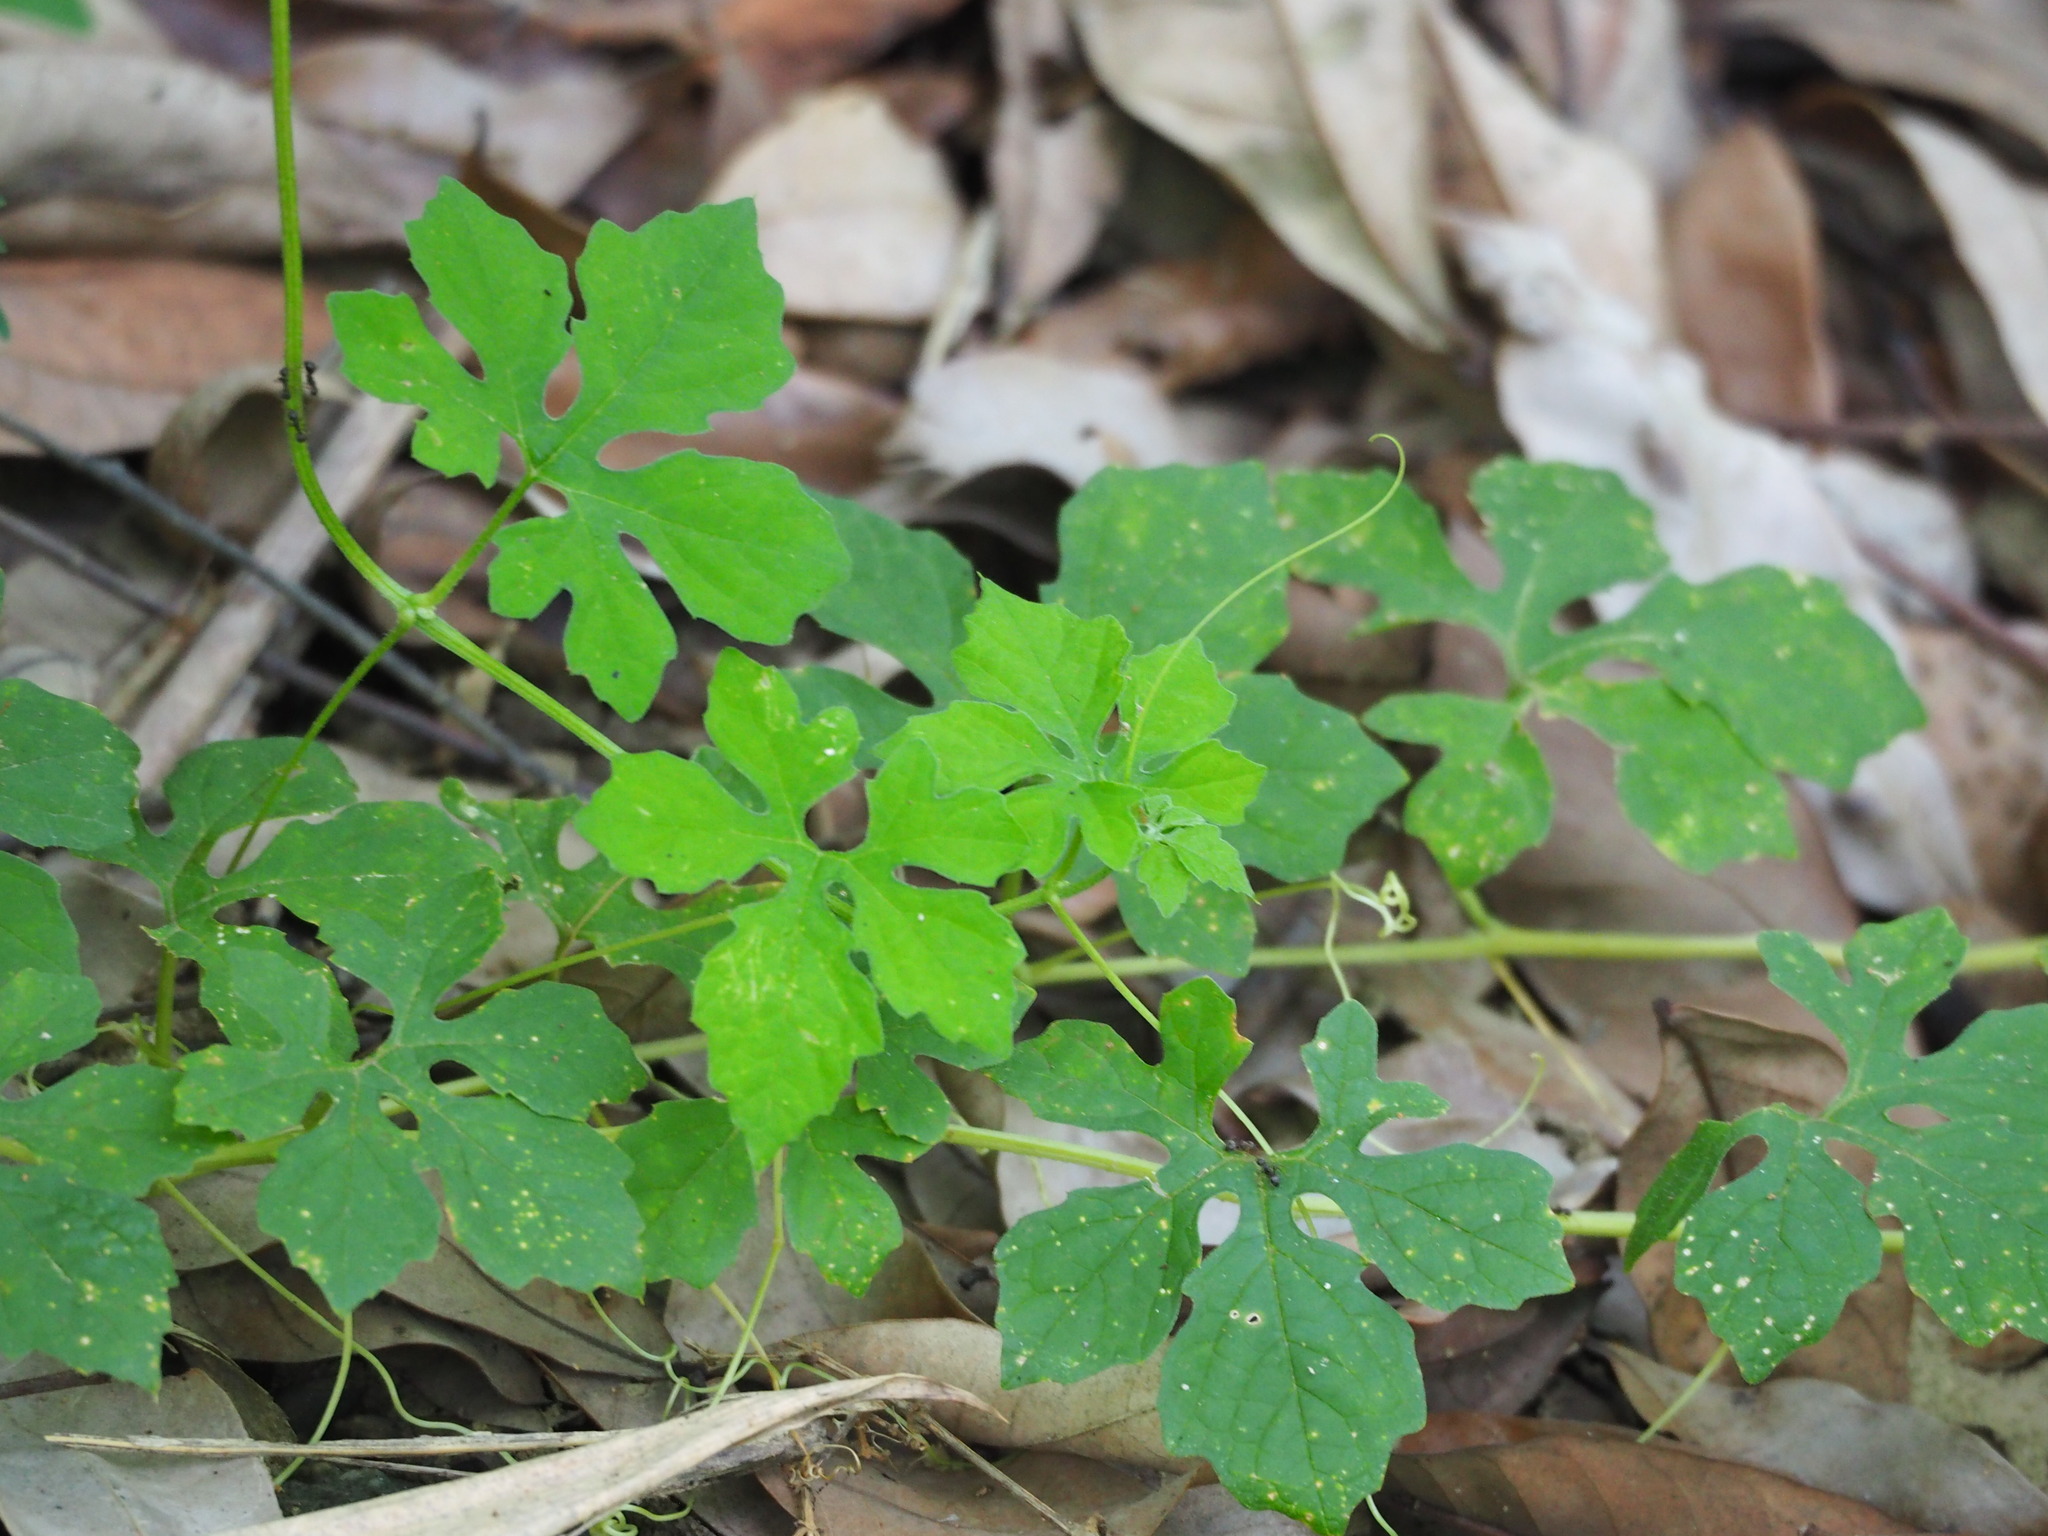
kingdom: Plantae
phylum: Tracheophyta
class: Magnoliopsida
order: Cucurbitales
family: Cucurbitaceae
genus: Momordica
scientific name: Momordica charantia
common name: Balsampear
